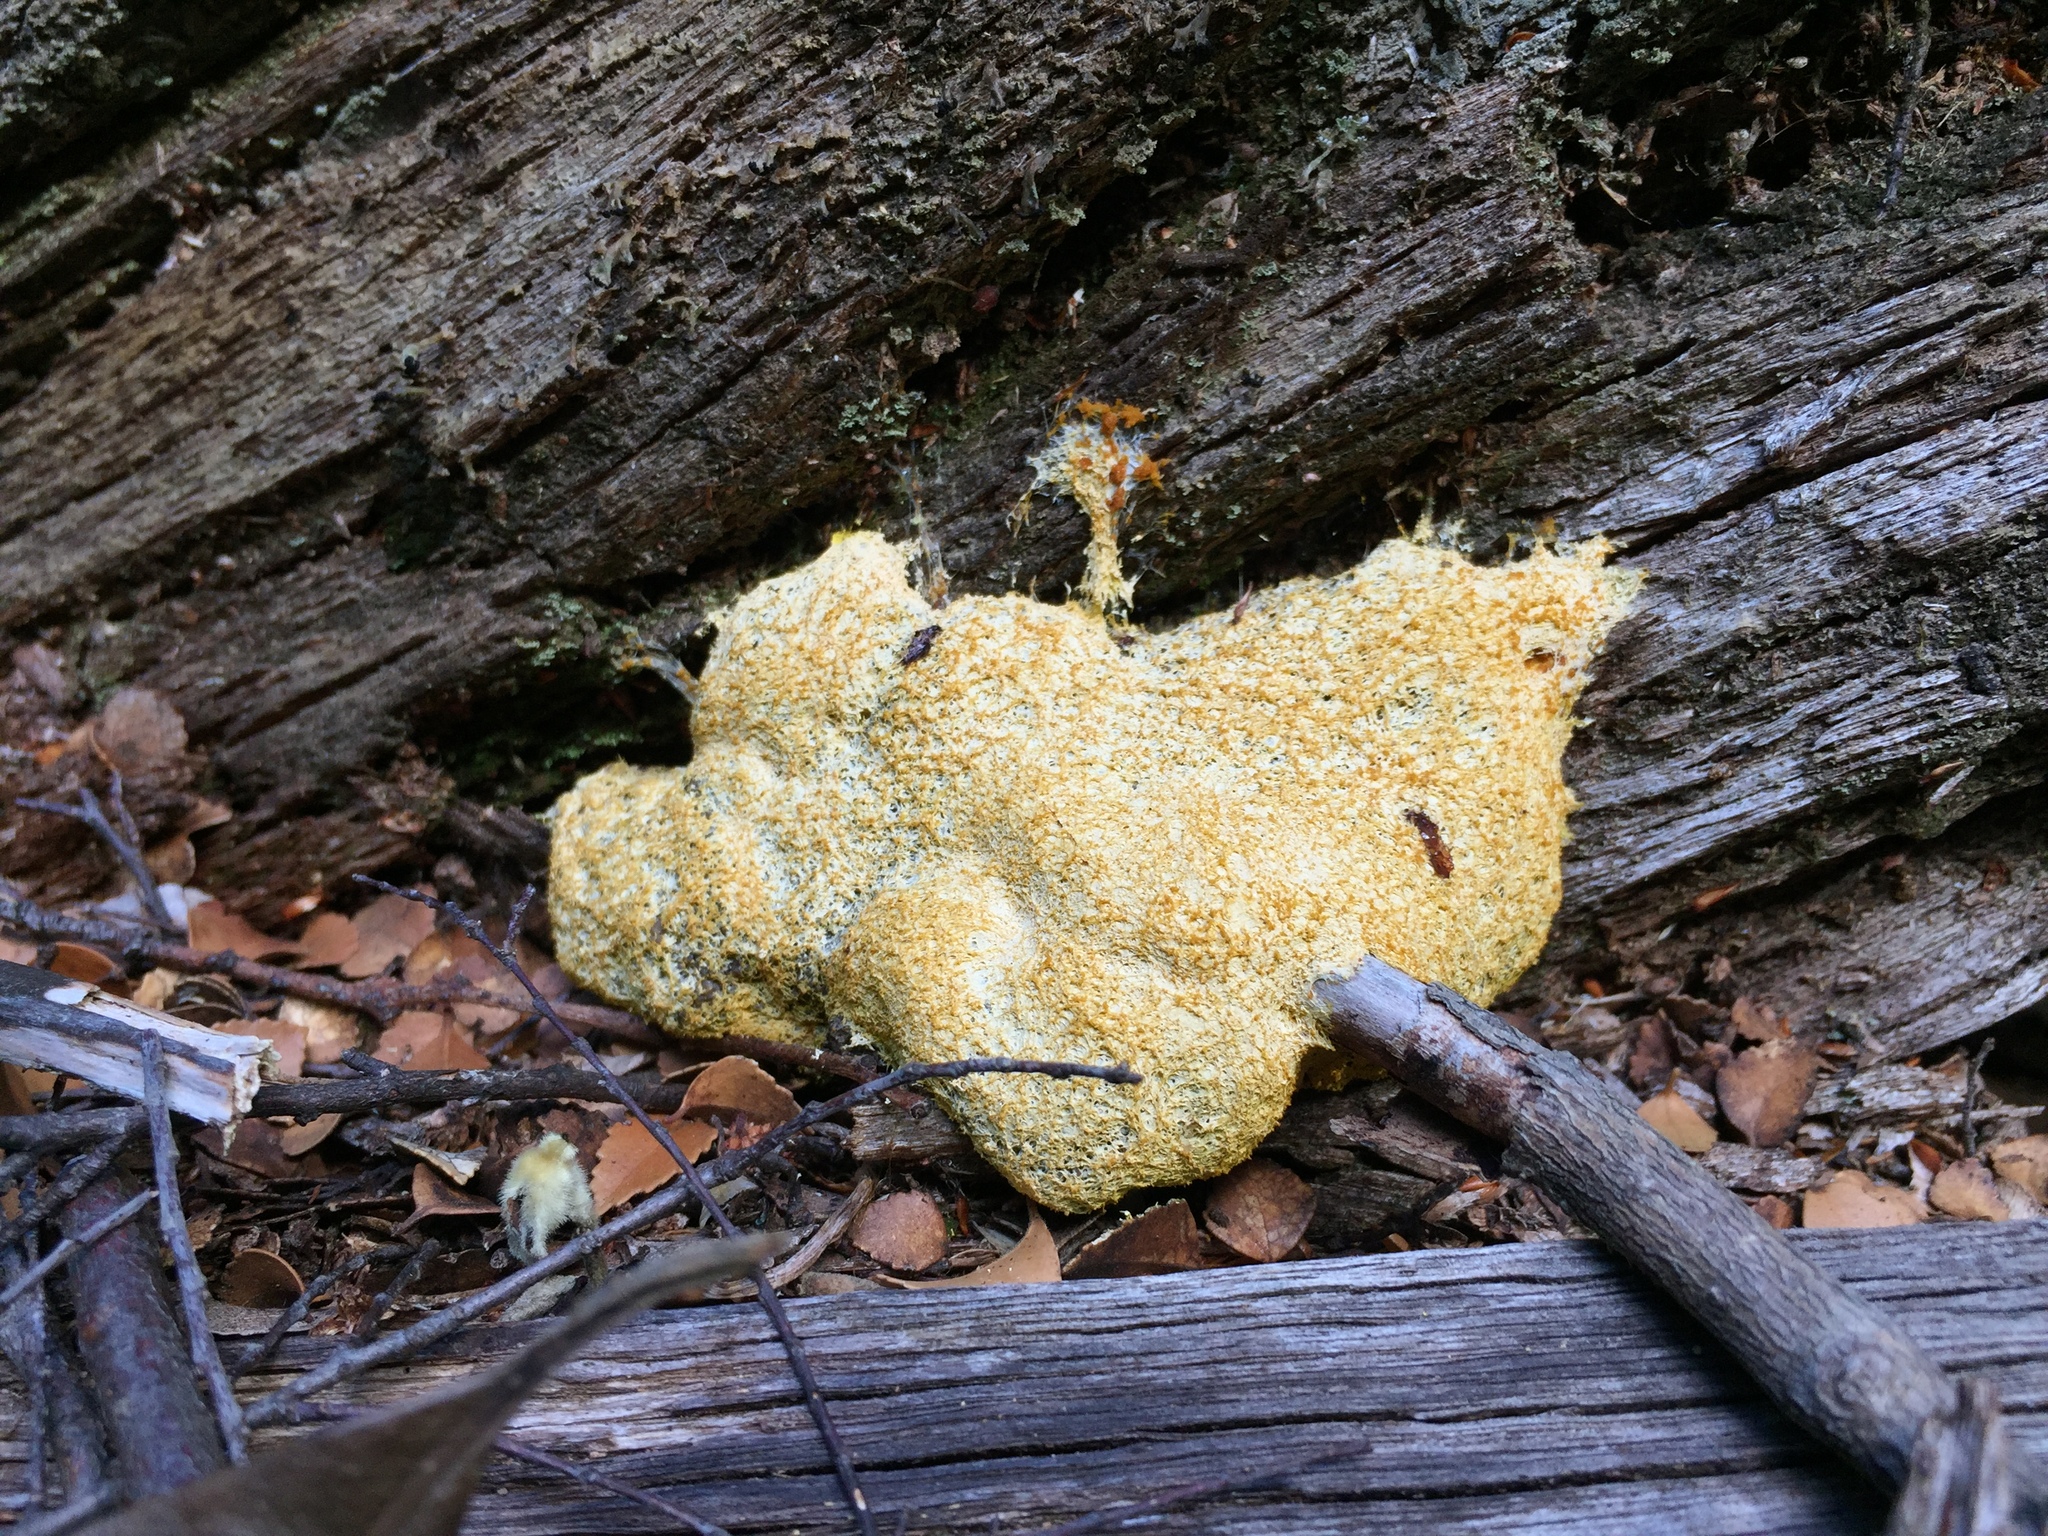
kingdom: Protozoa
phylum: Mycetozoa
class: Myxomycetes
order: Physarales
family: Physaraceae
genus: Fuligo
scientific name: Fuligo septica
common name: Dog vomit slime mold
